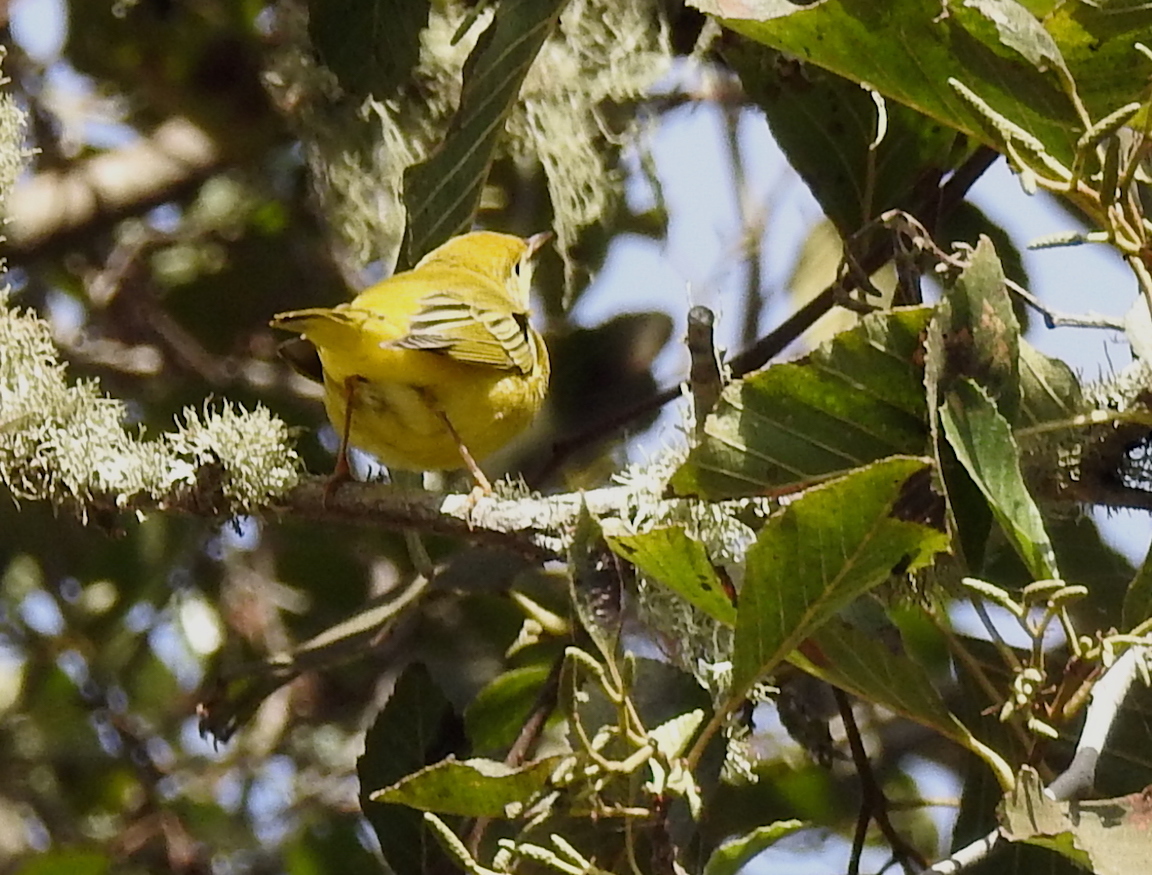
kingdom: Animalia
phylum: Chordata
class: Aves
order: Passeriformes
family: Parulidae
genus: Setophaga
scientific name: Setophaga petechia
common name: Yellow warbler
